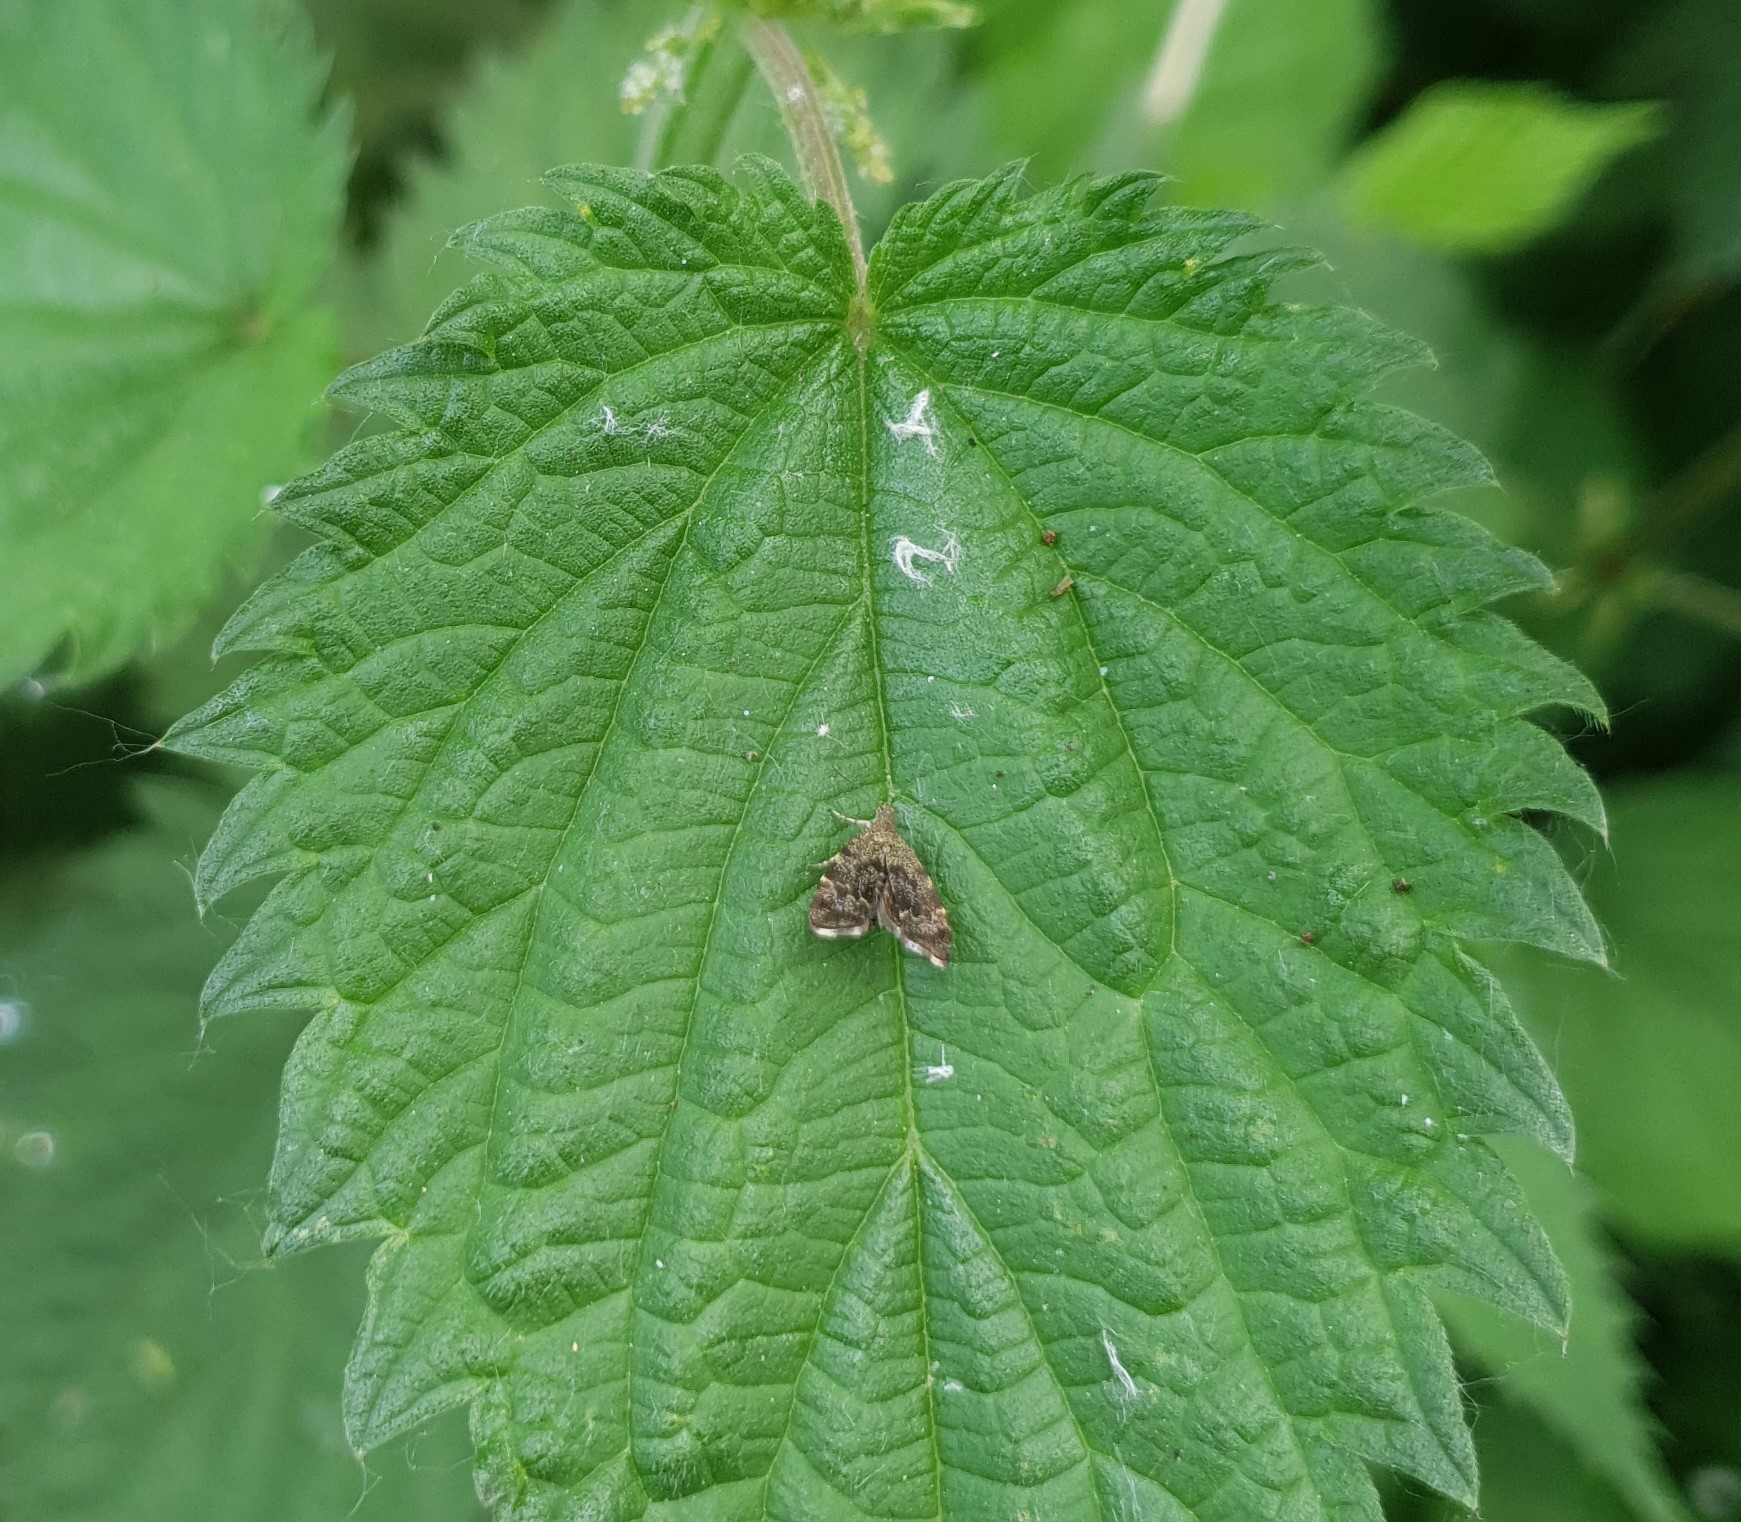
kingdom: Animalia
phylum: Arthropoda
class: Insecta
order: Lepidoptera
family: Choreutidae
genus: Anthophila
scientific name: Anthophila fabriciana
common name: Nettle-tap
